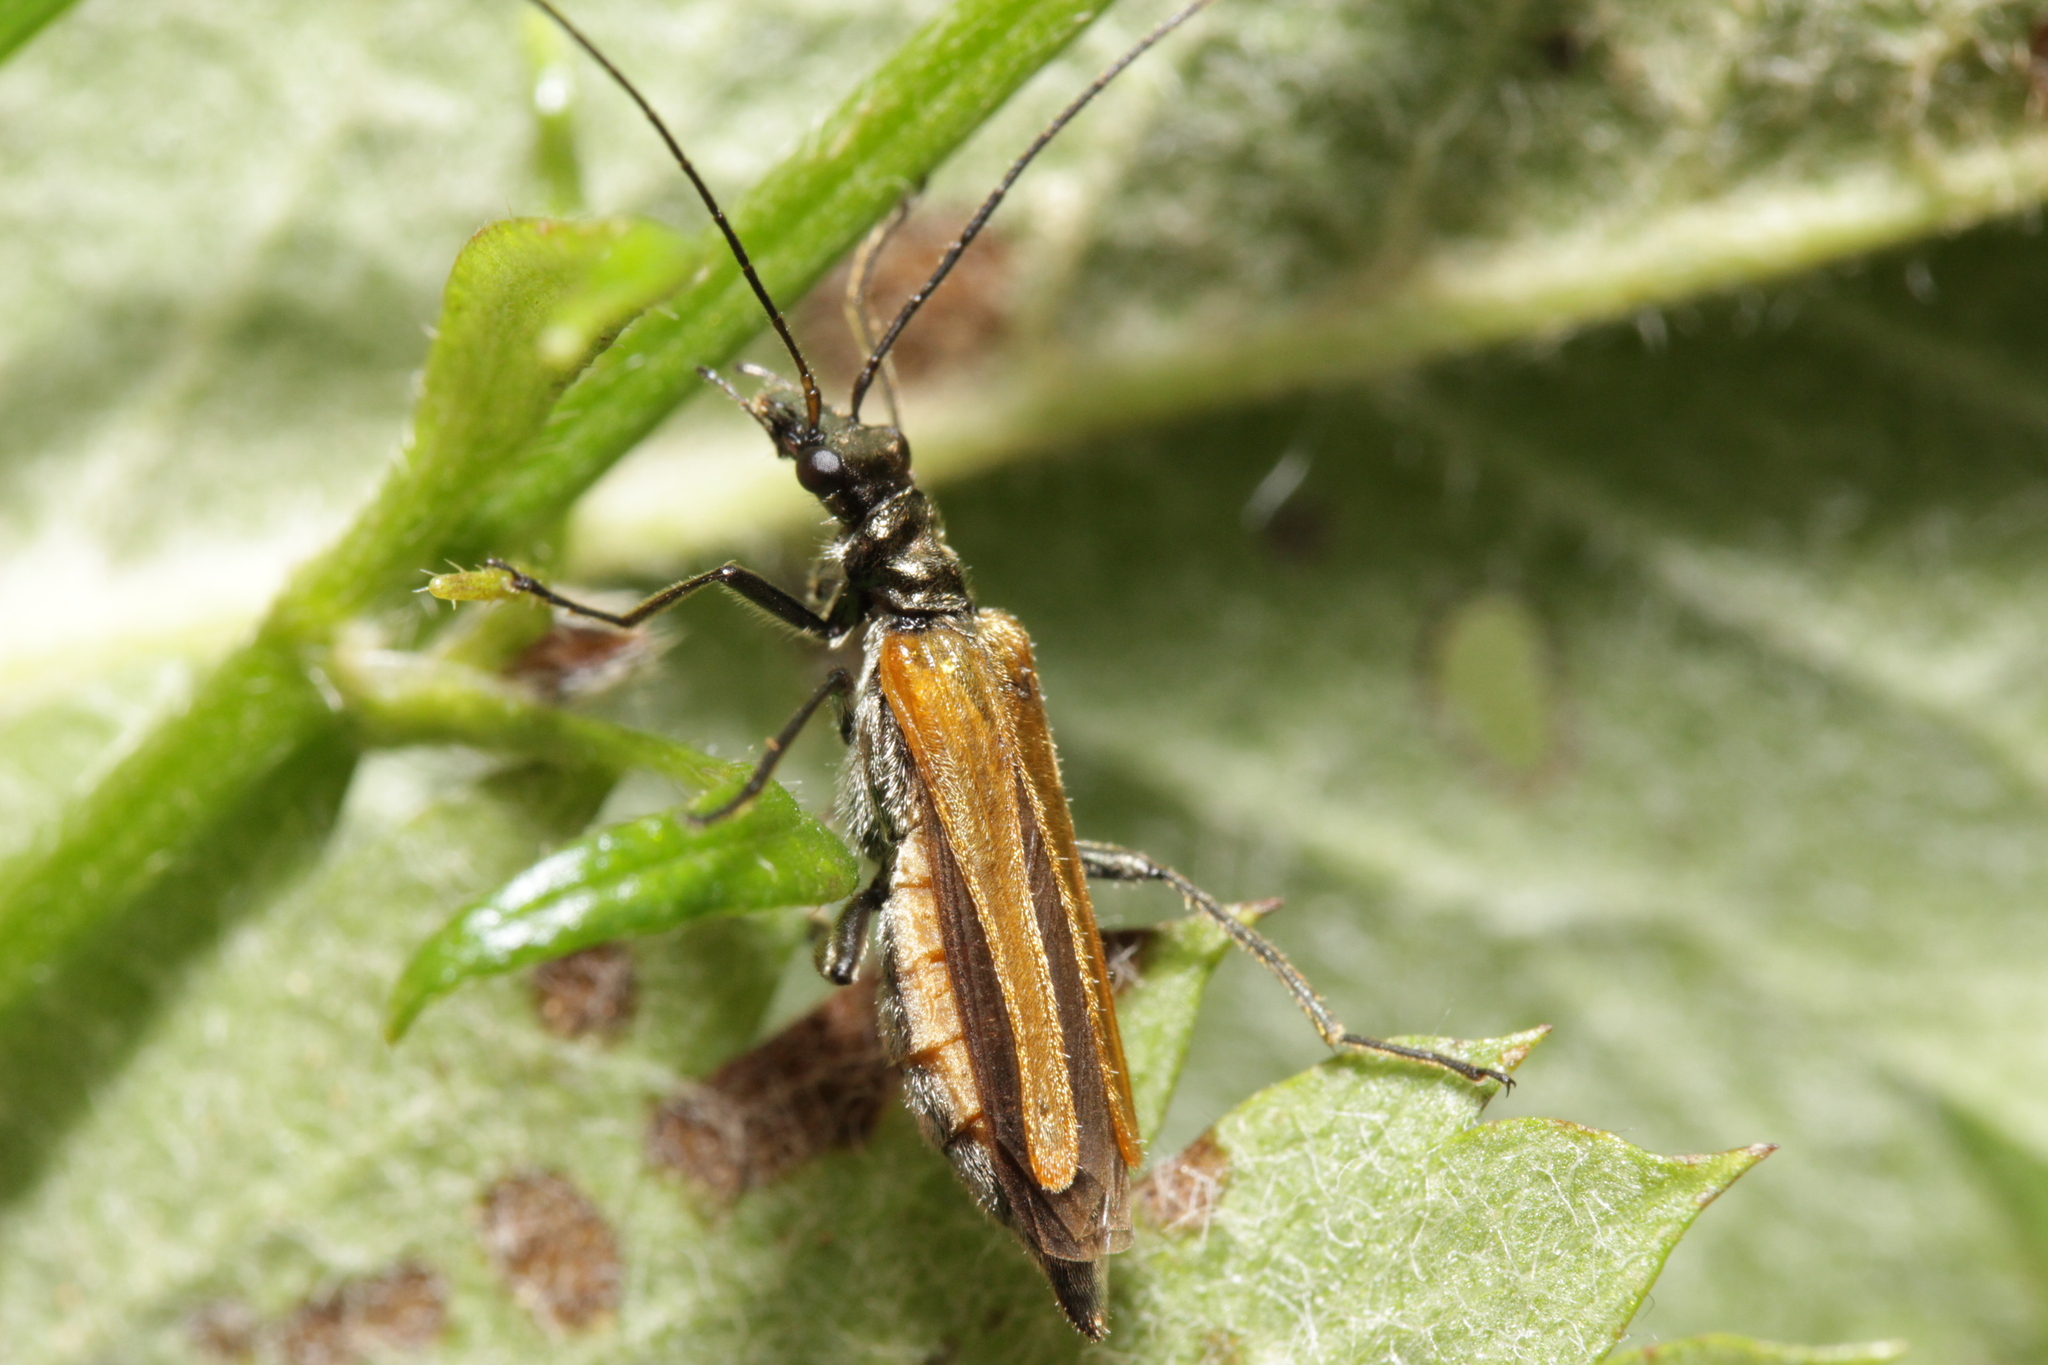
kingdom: Animalia
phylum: Arthropoda
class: Insecta
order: Coleoptera
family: Oedemeridae
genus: Oedemera
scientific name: Oedemera femorata
